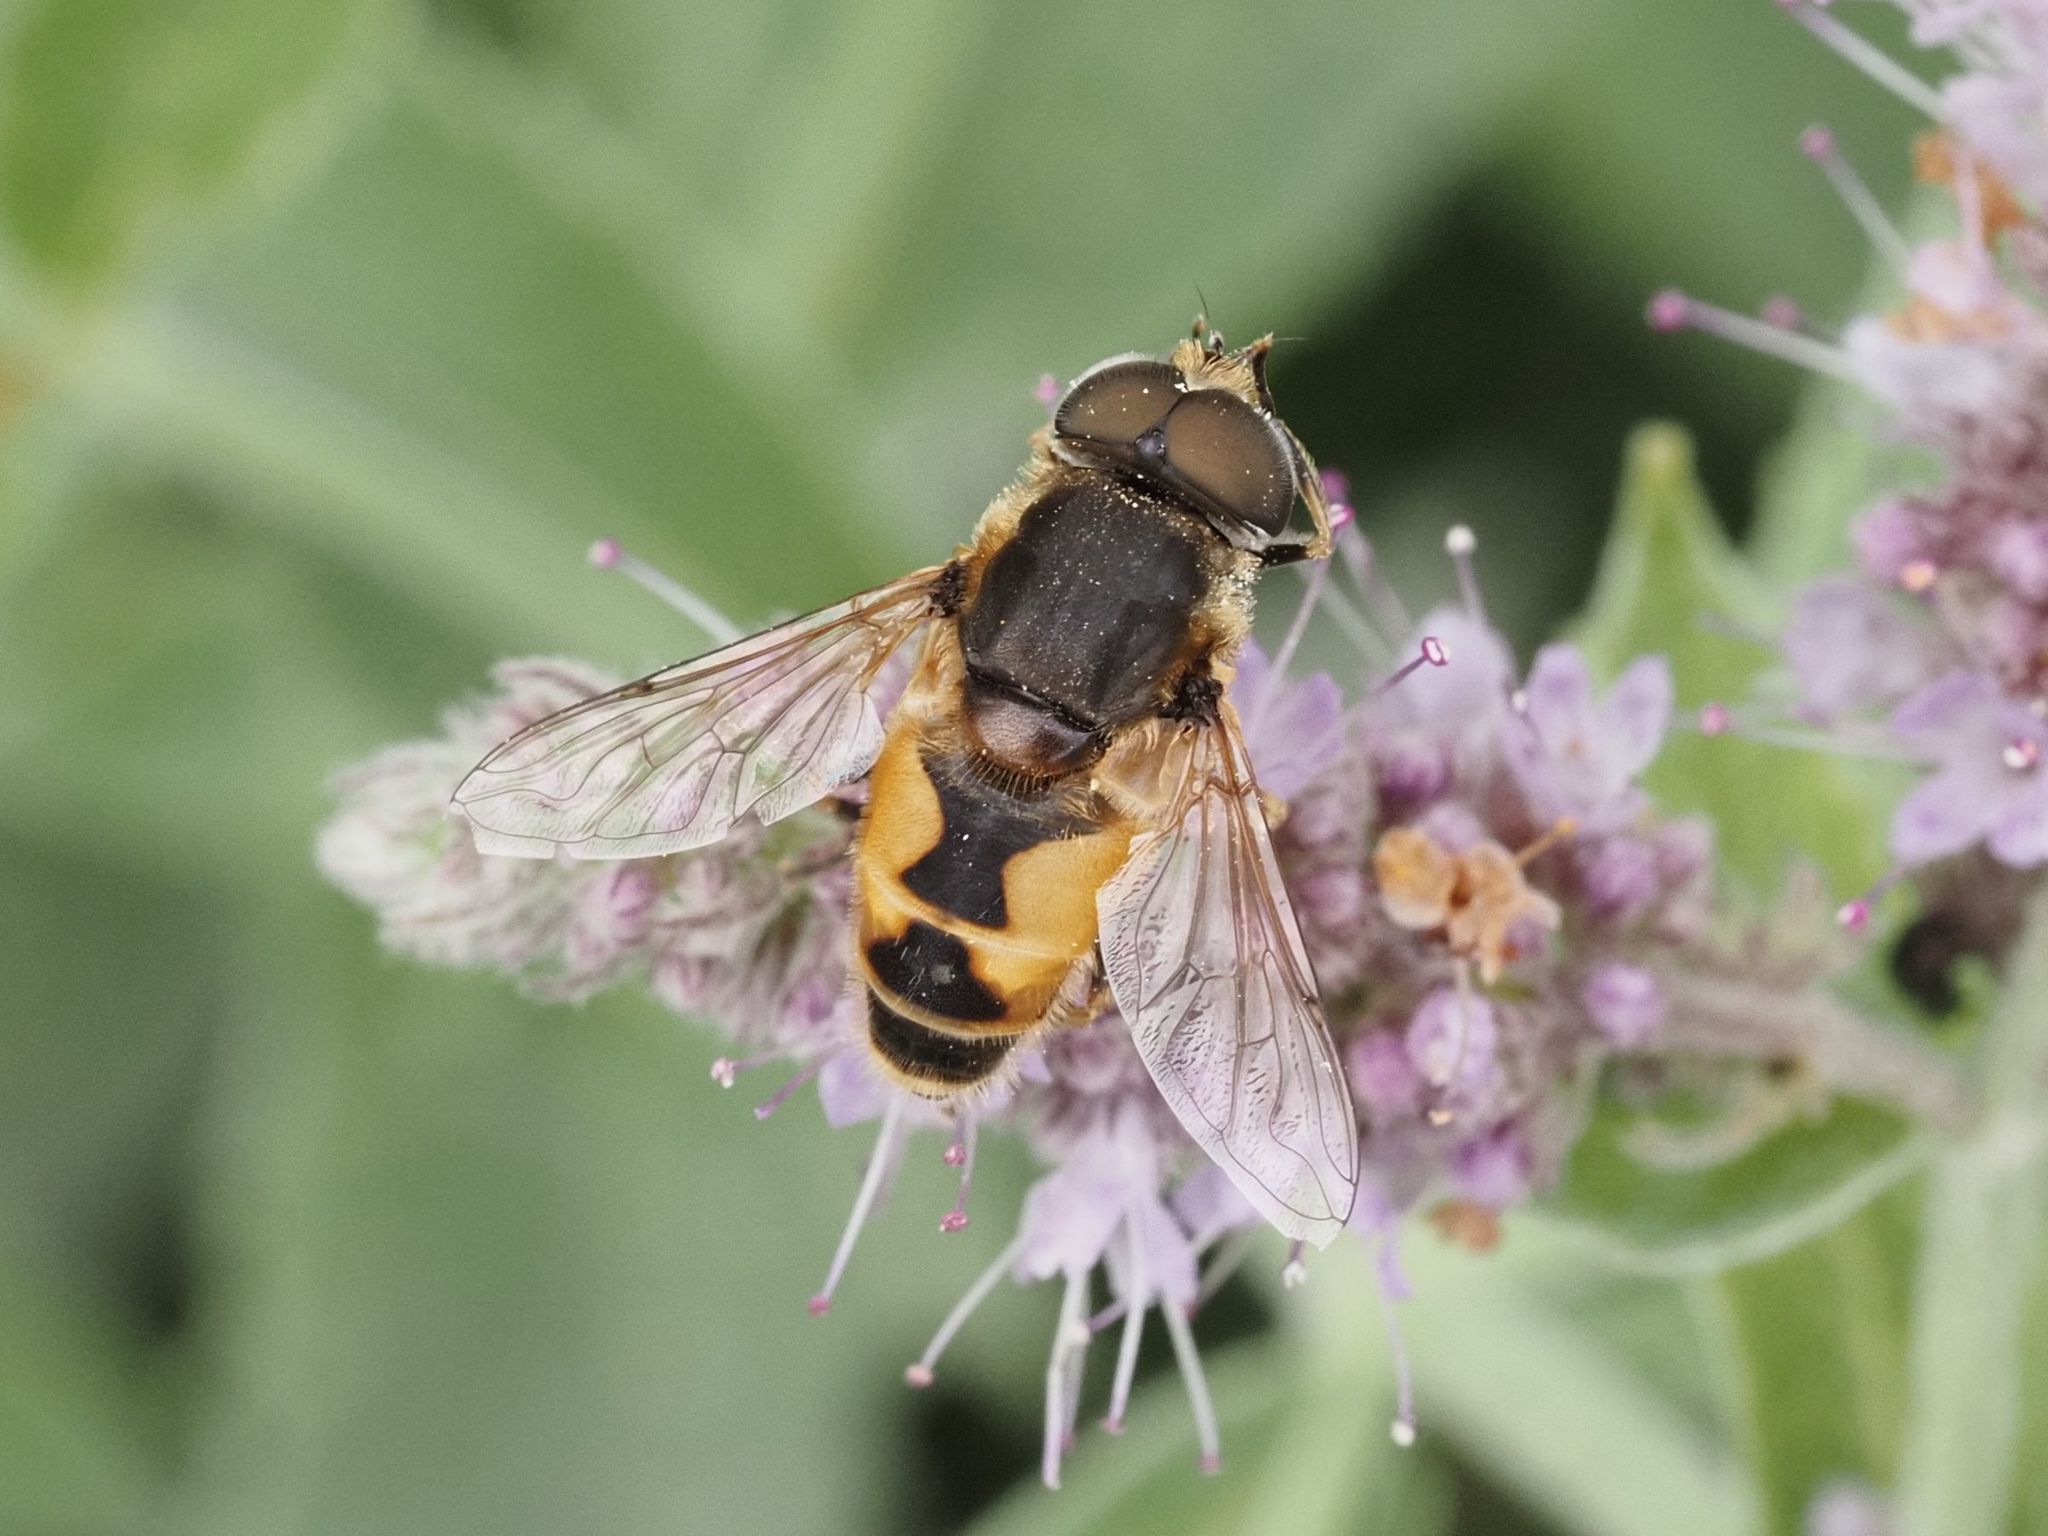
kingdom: Animalia
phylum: Arthropoda
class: Insecta
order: Diptera
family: Syrphidae
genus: Eristalis
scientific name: Eristalis arbustorum
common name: Hover fly
